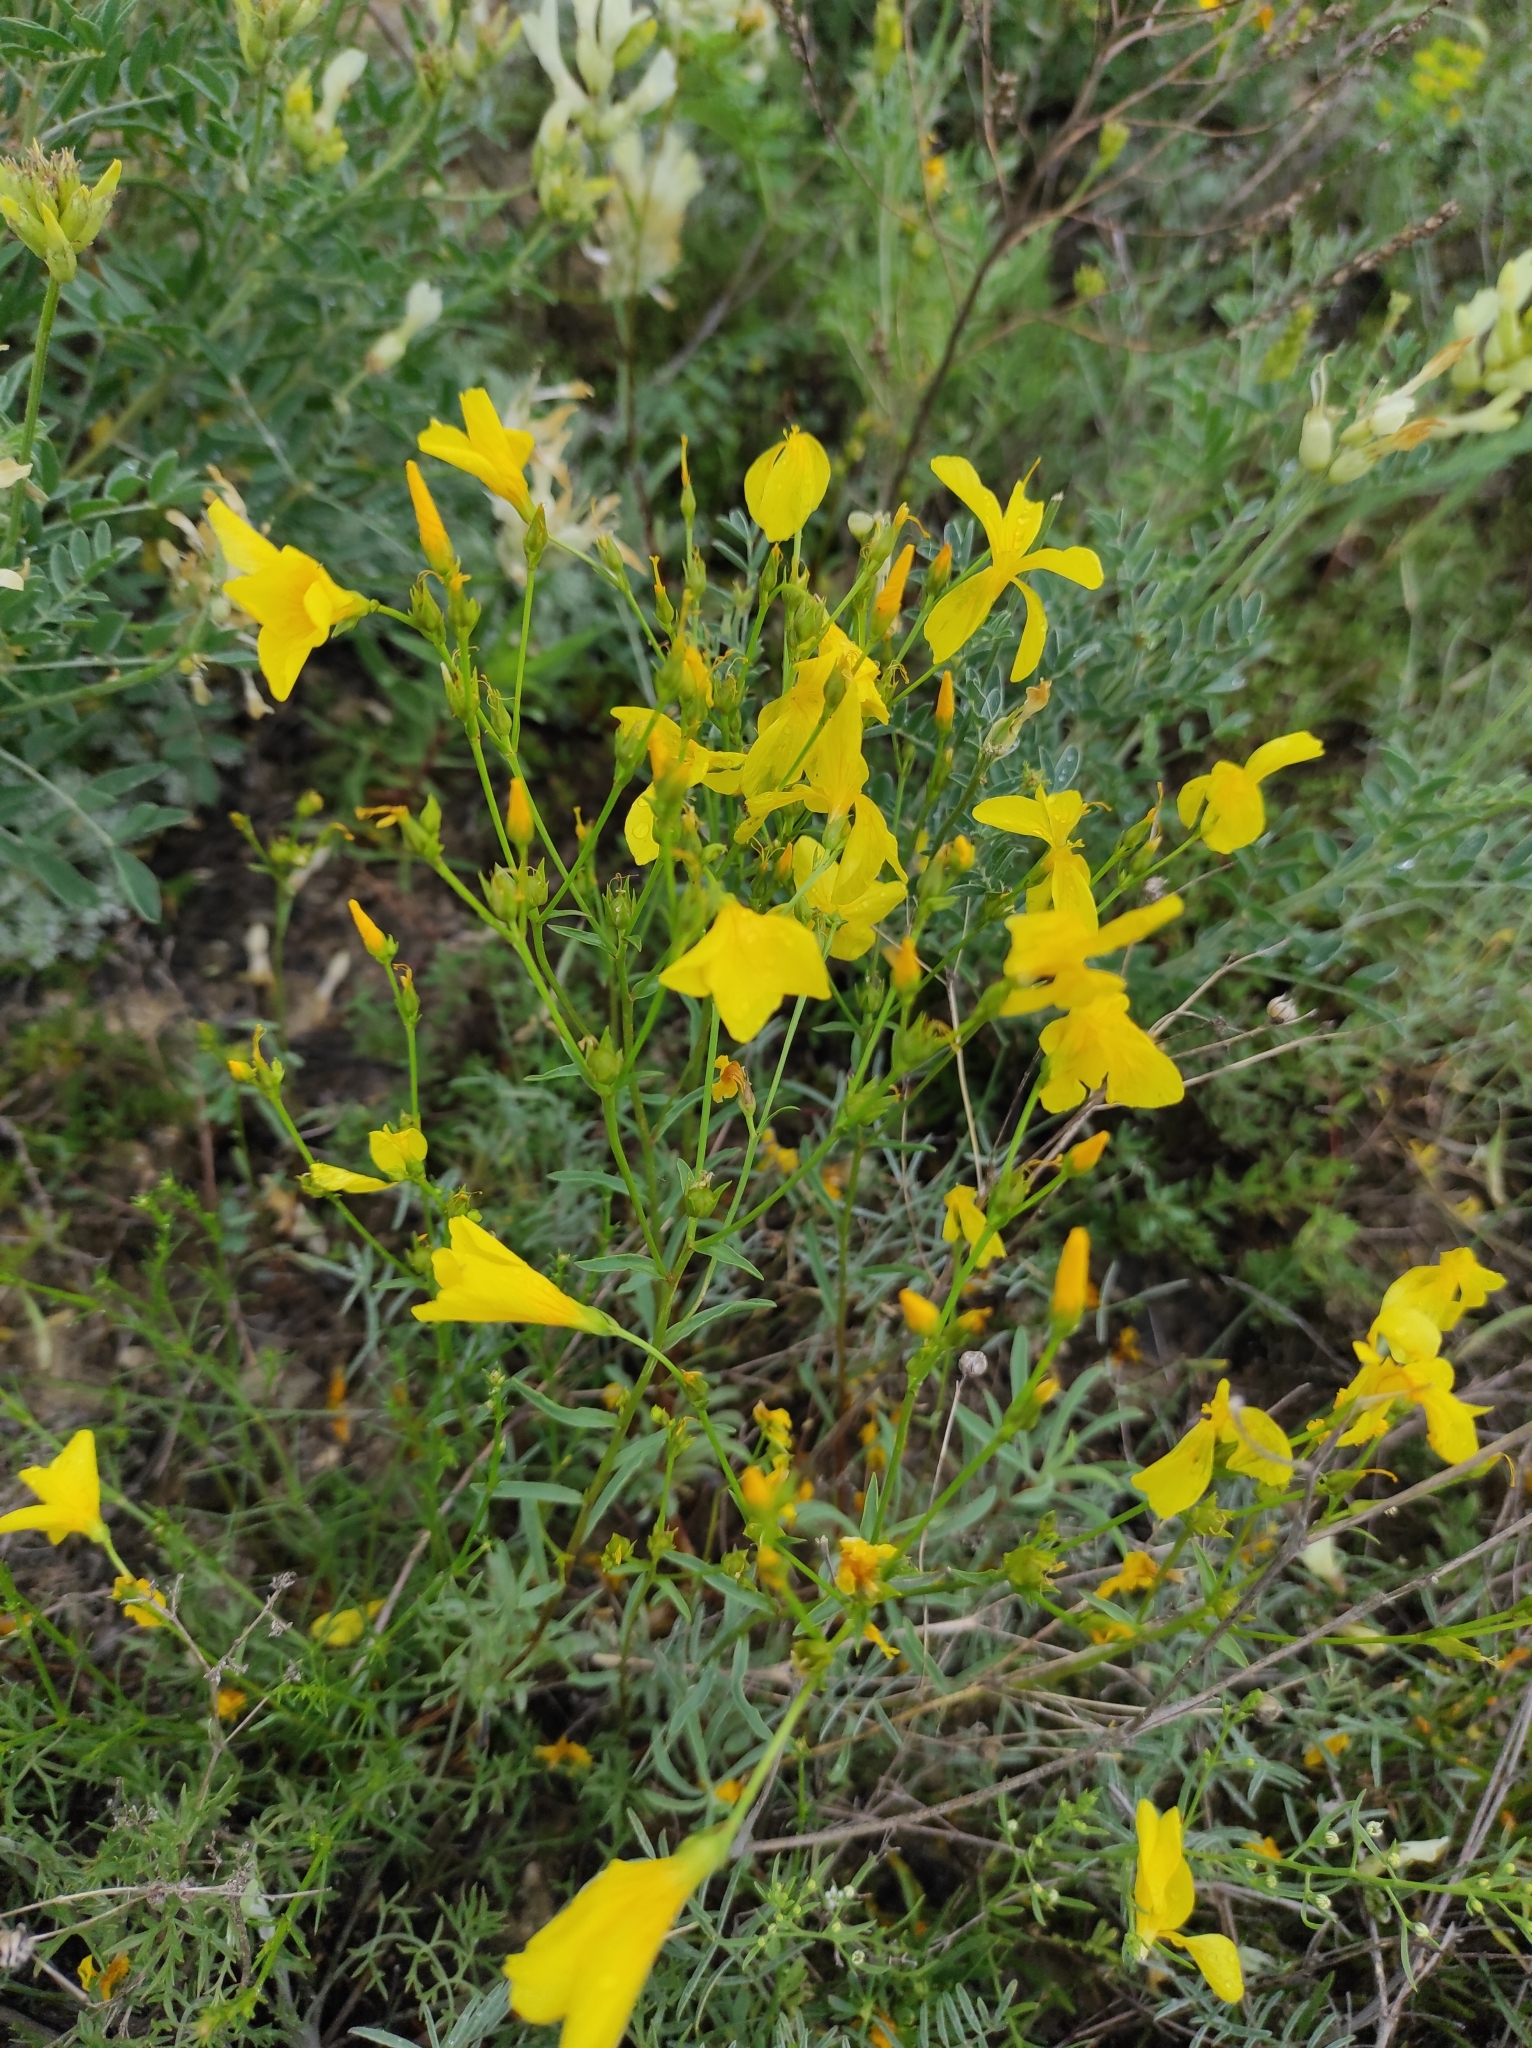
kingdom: Plantae
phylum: Tracheophyta
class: Magnoliopsida
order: Malpighiales
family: Linaceae
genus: Linum
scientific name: Linum ucranicum
